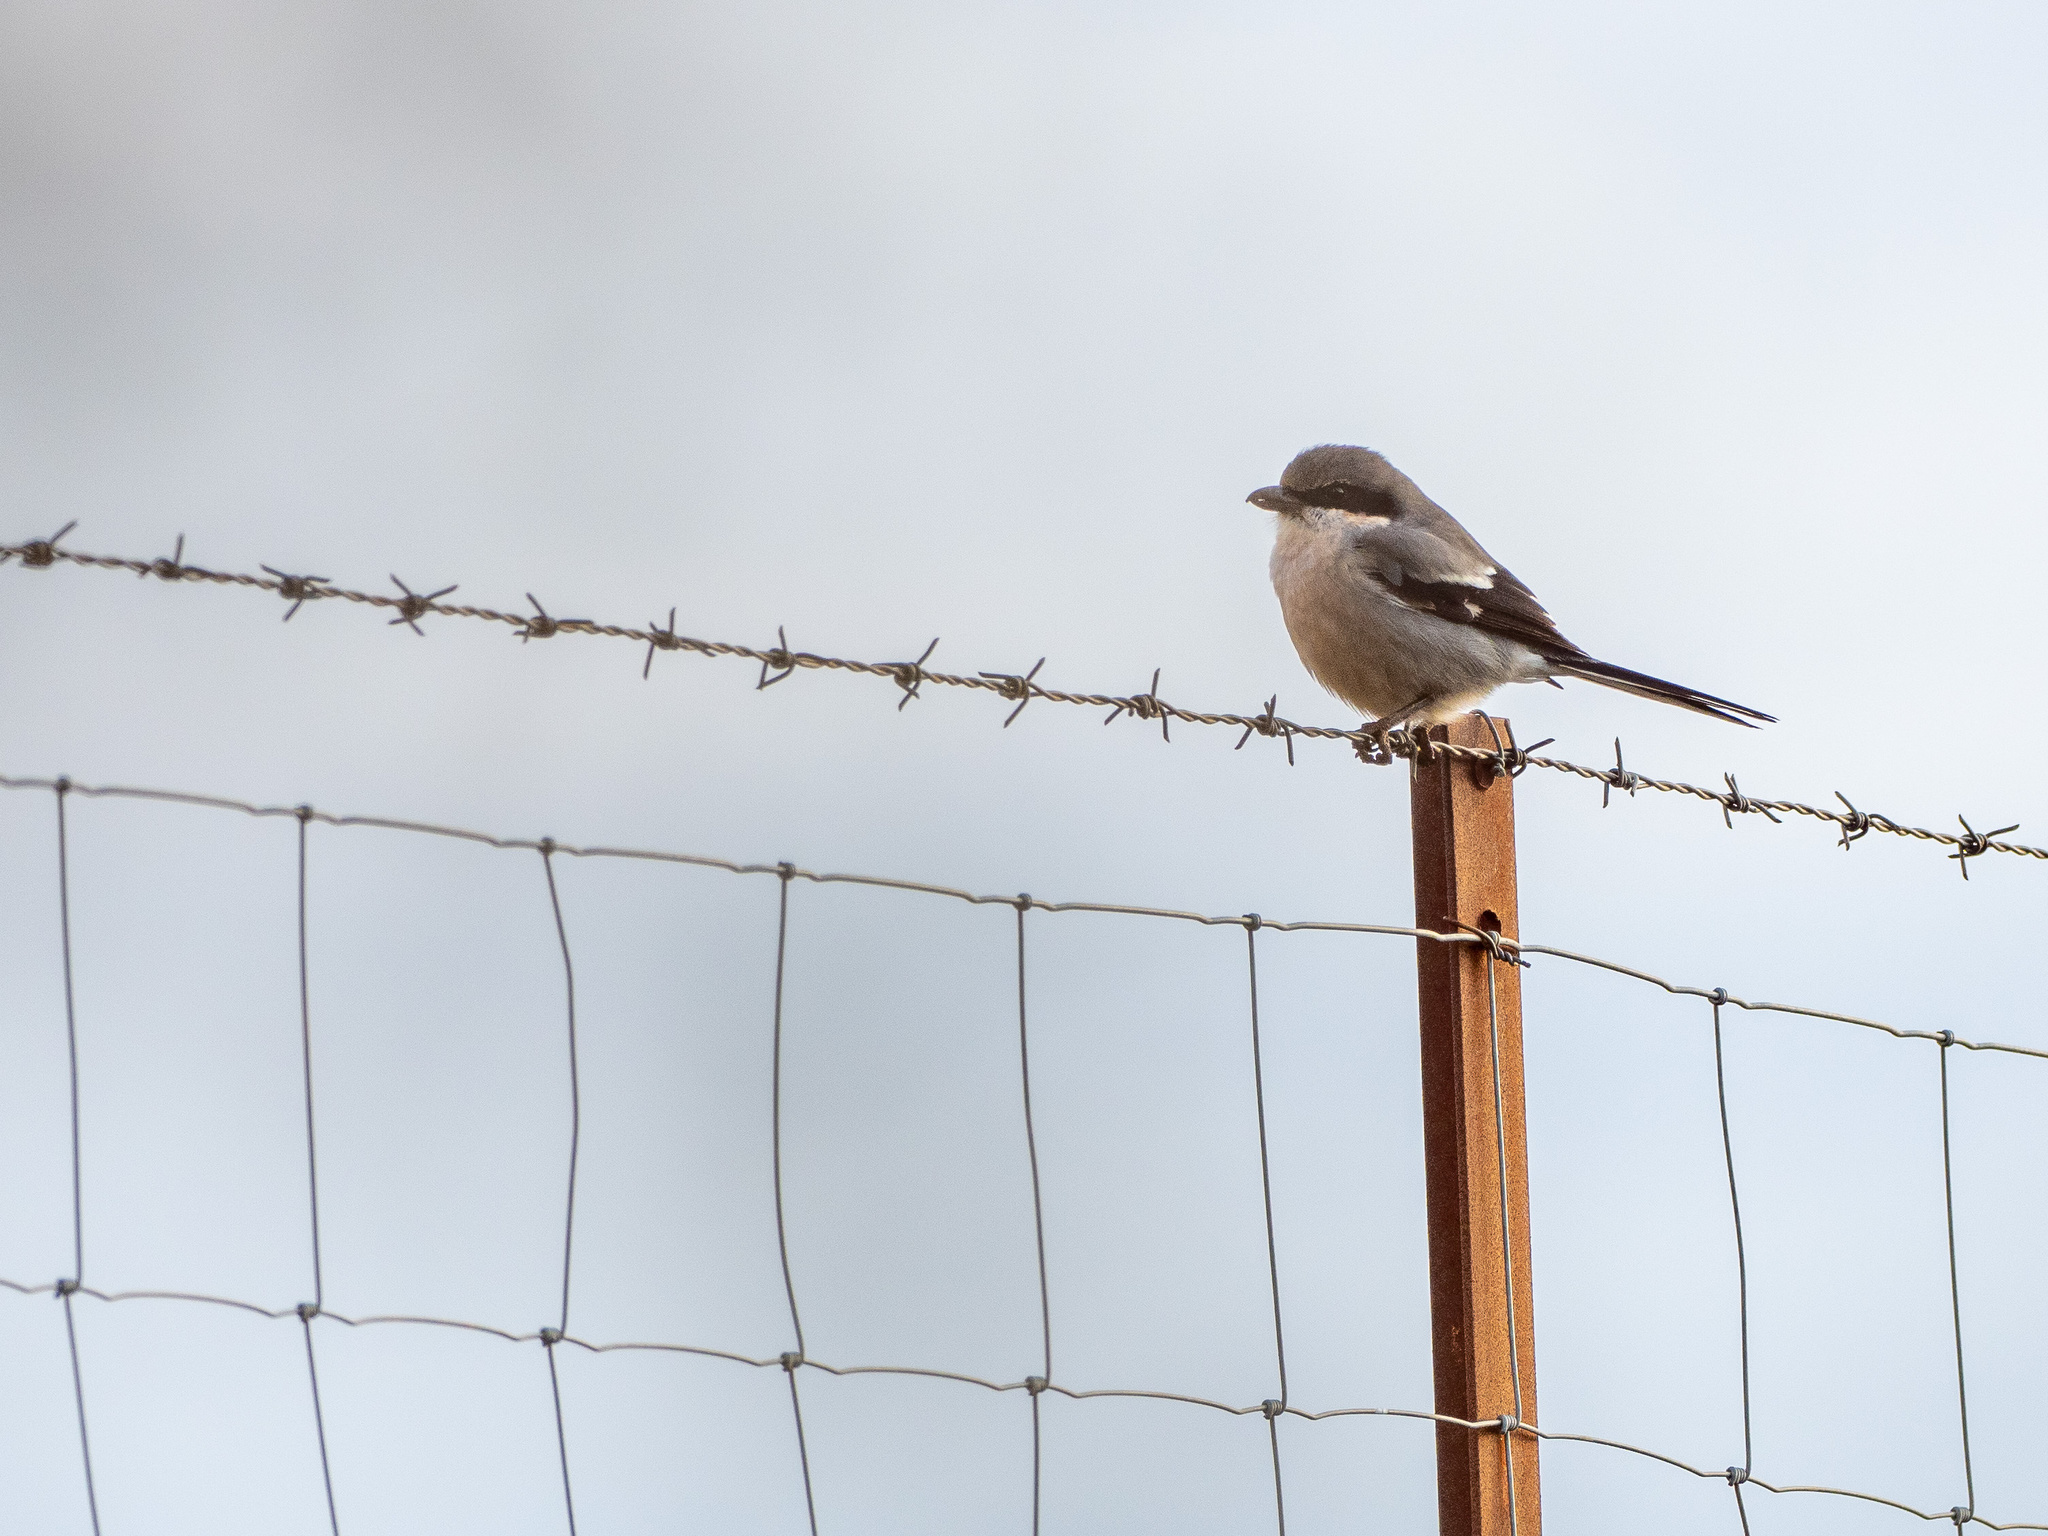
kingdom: Animalia
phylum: Chordata
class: Aves
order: Passeriformes
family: Laniidae
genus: Lanius
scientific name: Lanius meridionalis
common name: Iberian grey shrike
